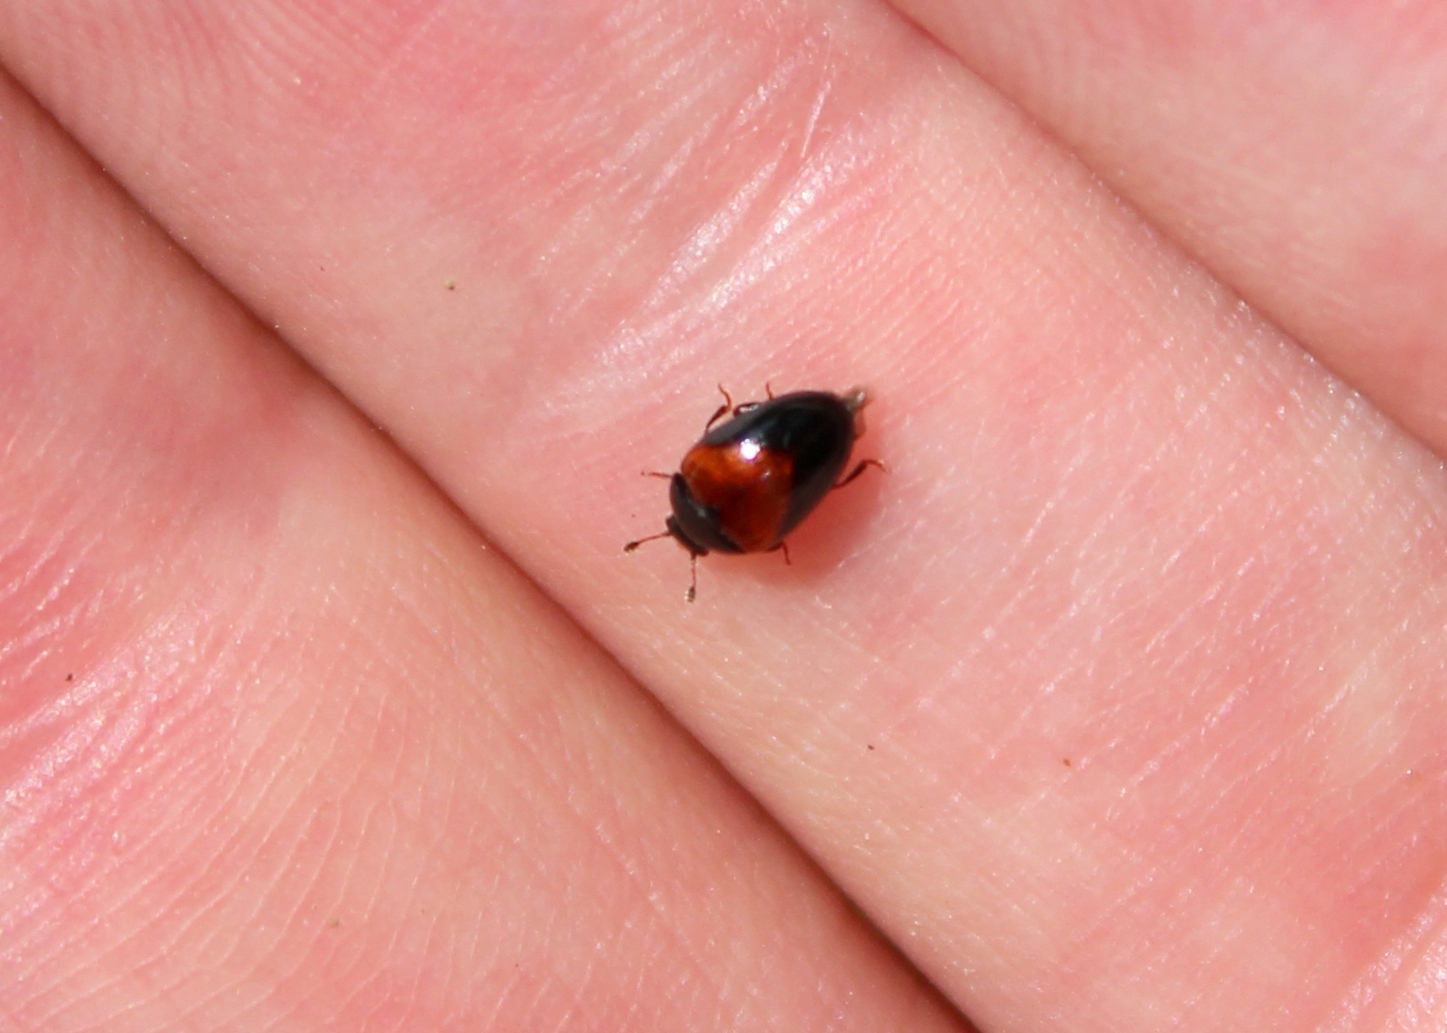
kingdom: Animalia
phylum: Arthropoda
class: Insecta
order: Coleoptera
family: Erotylidae
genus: Tritoma
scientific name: Tritoma pulchra
